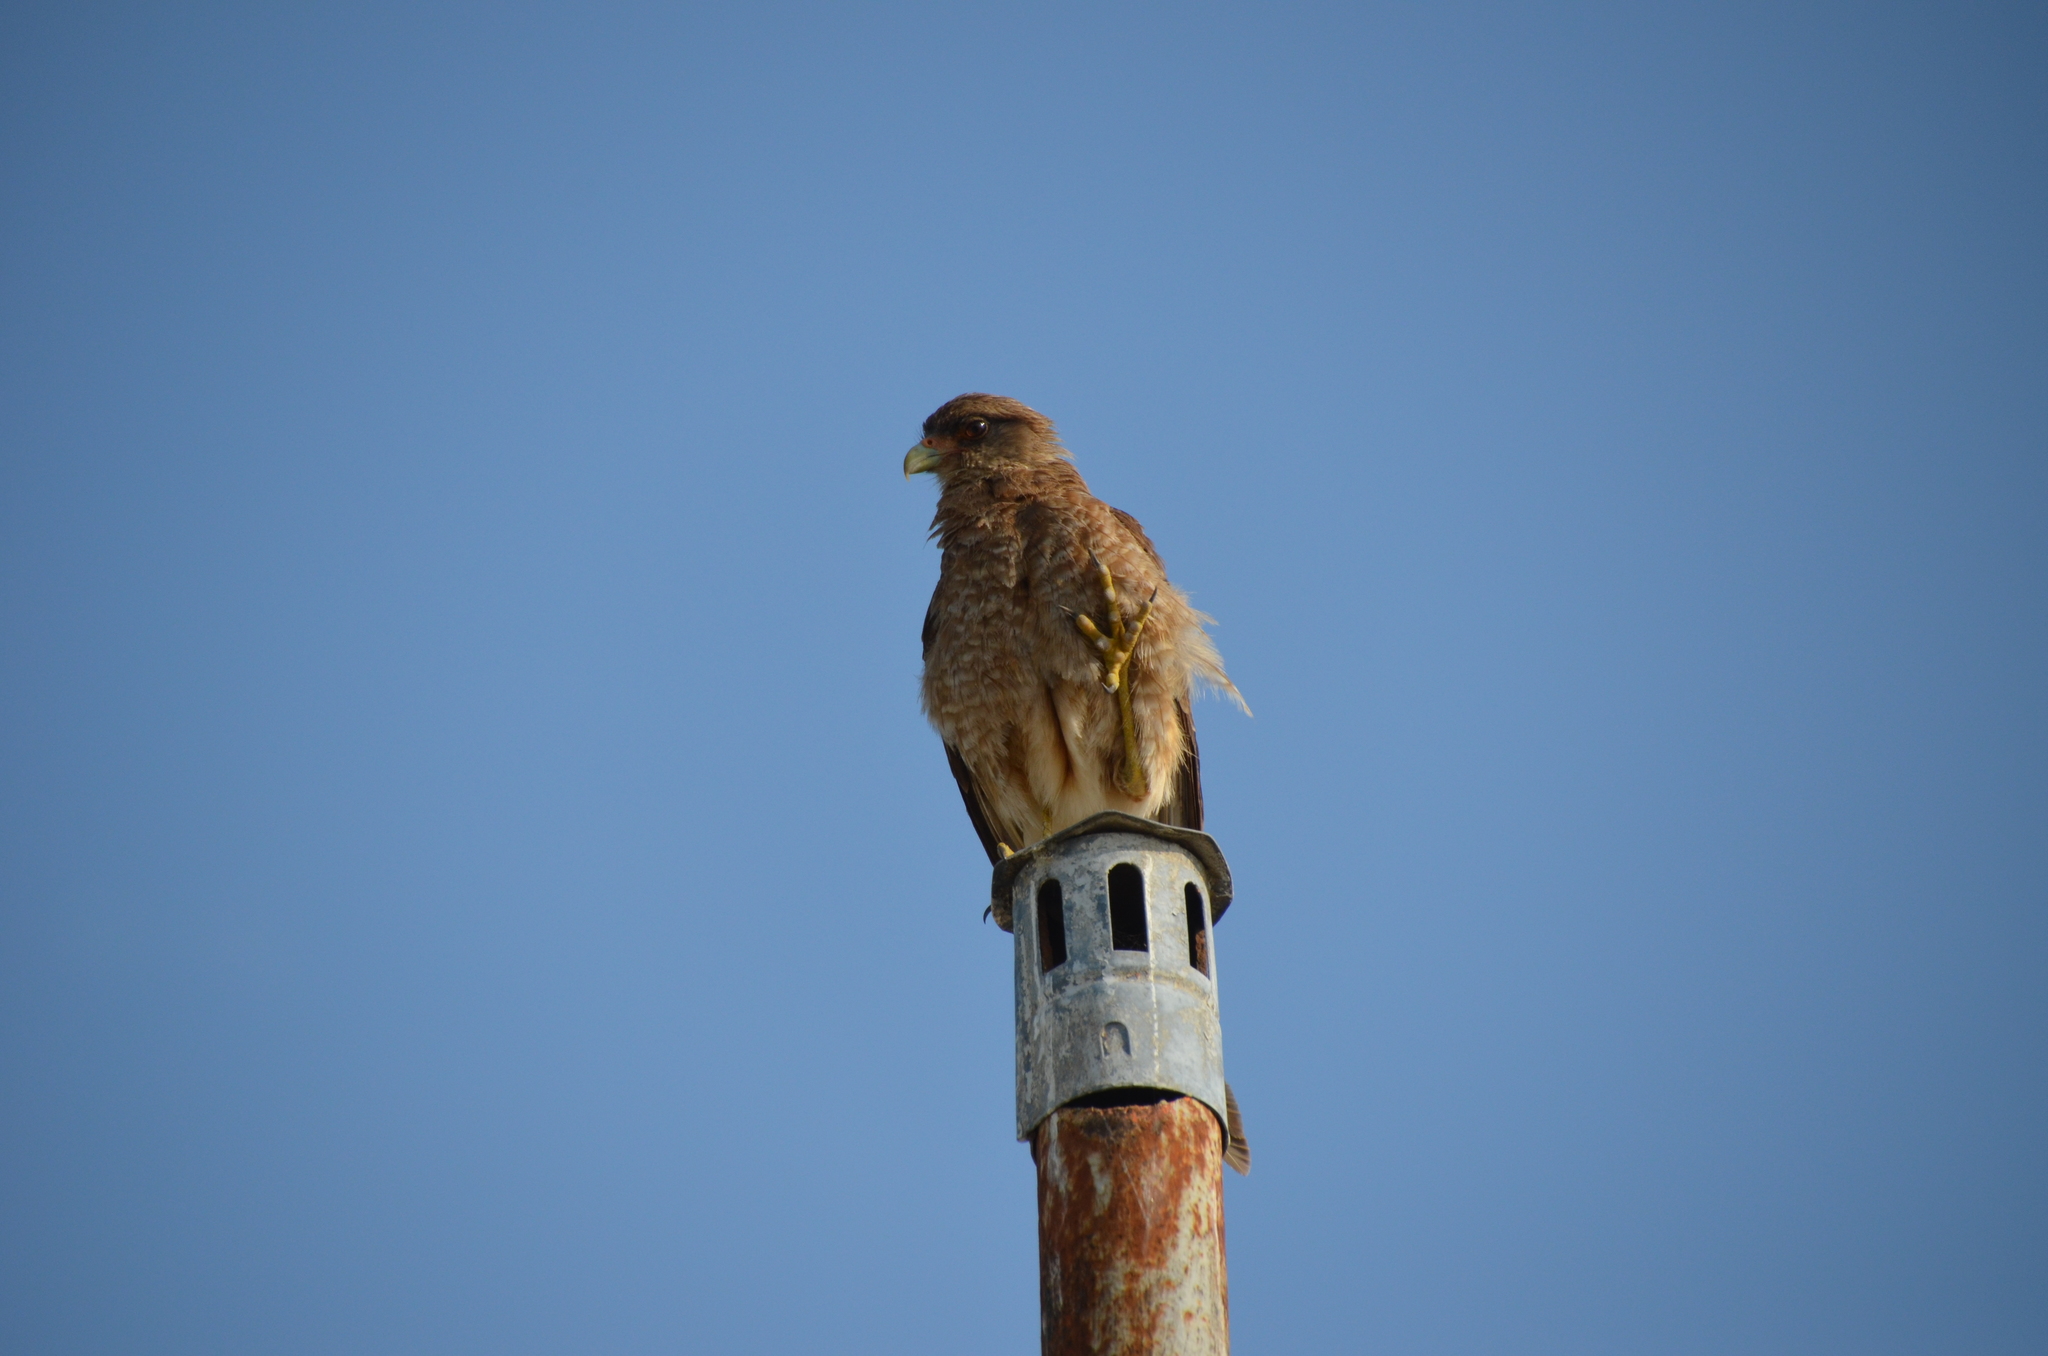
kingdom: Animalia
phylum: Chordata
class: Aves
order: Falconiformes
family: Falconidae
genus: Daptrius
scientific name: Daptrius
